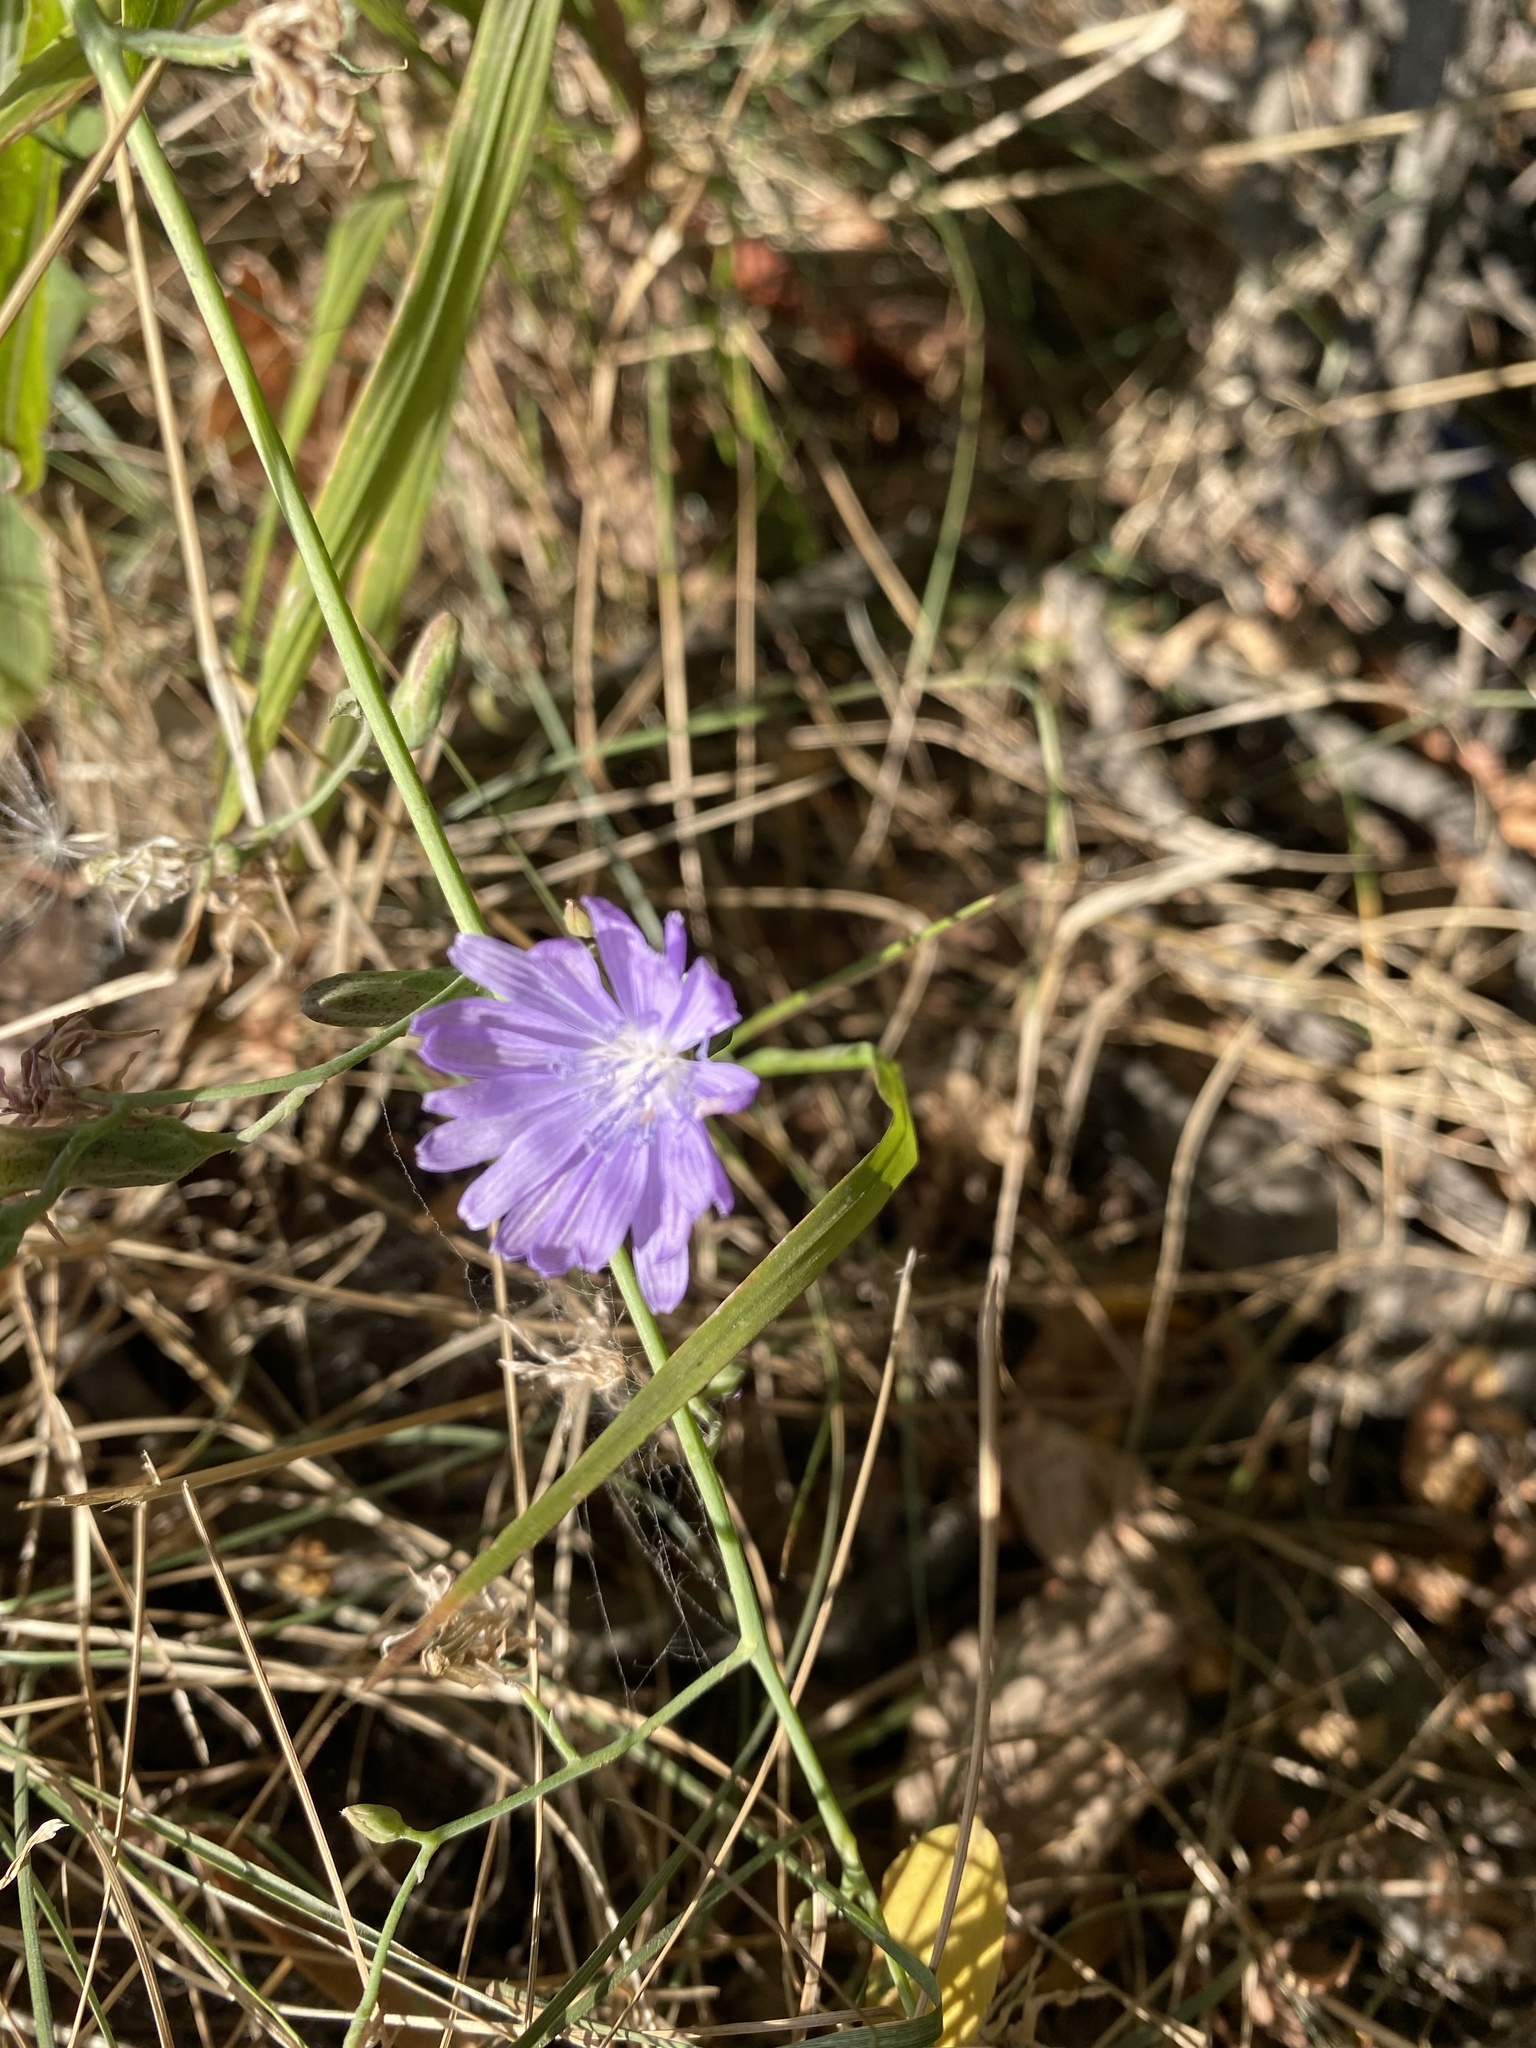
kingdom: Plantae
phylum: Tracheophyta
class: Magnoliopsida
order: Asterales
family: Asteraceae
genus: Lactuca
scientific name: Lactuca tatarica
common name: Blue lettuce
